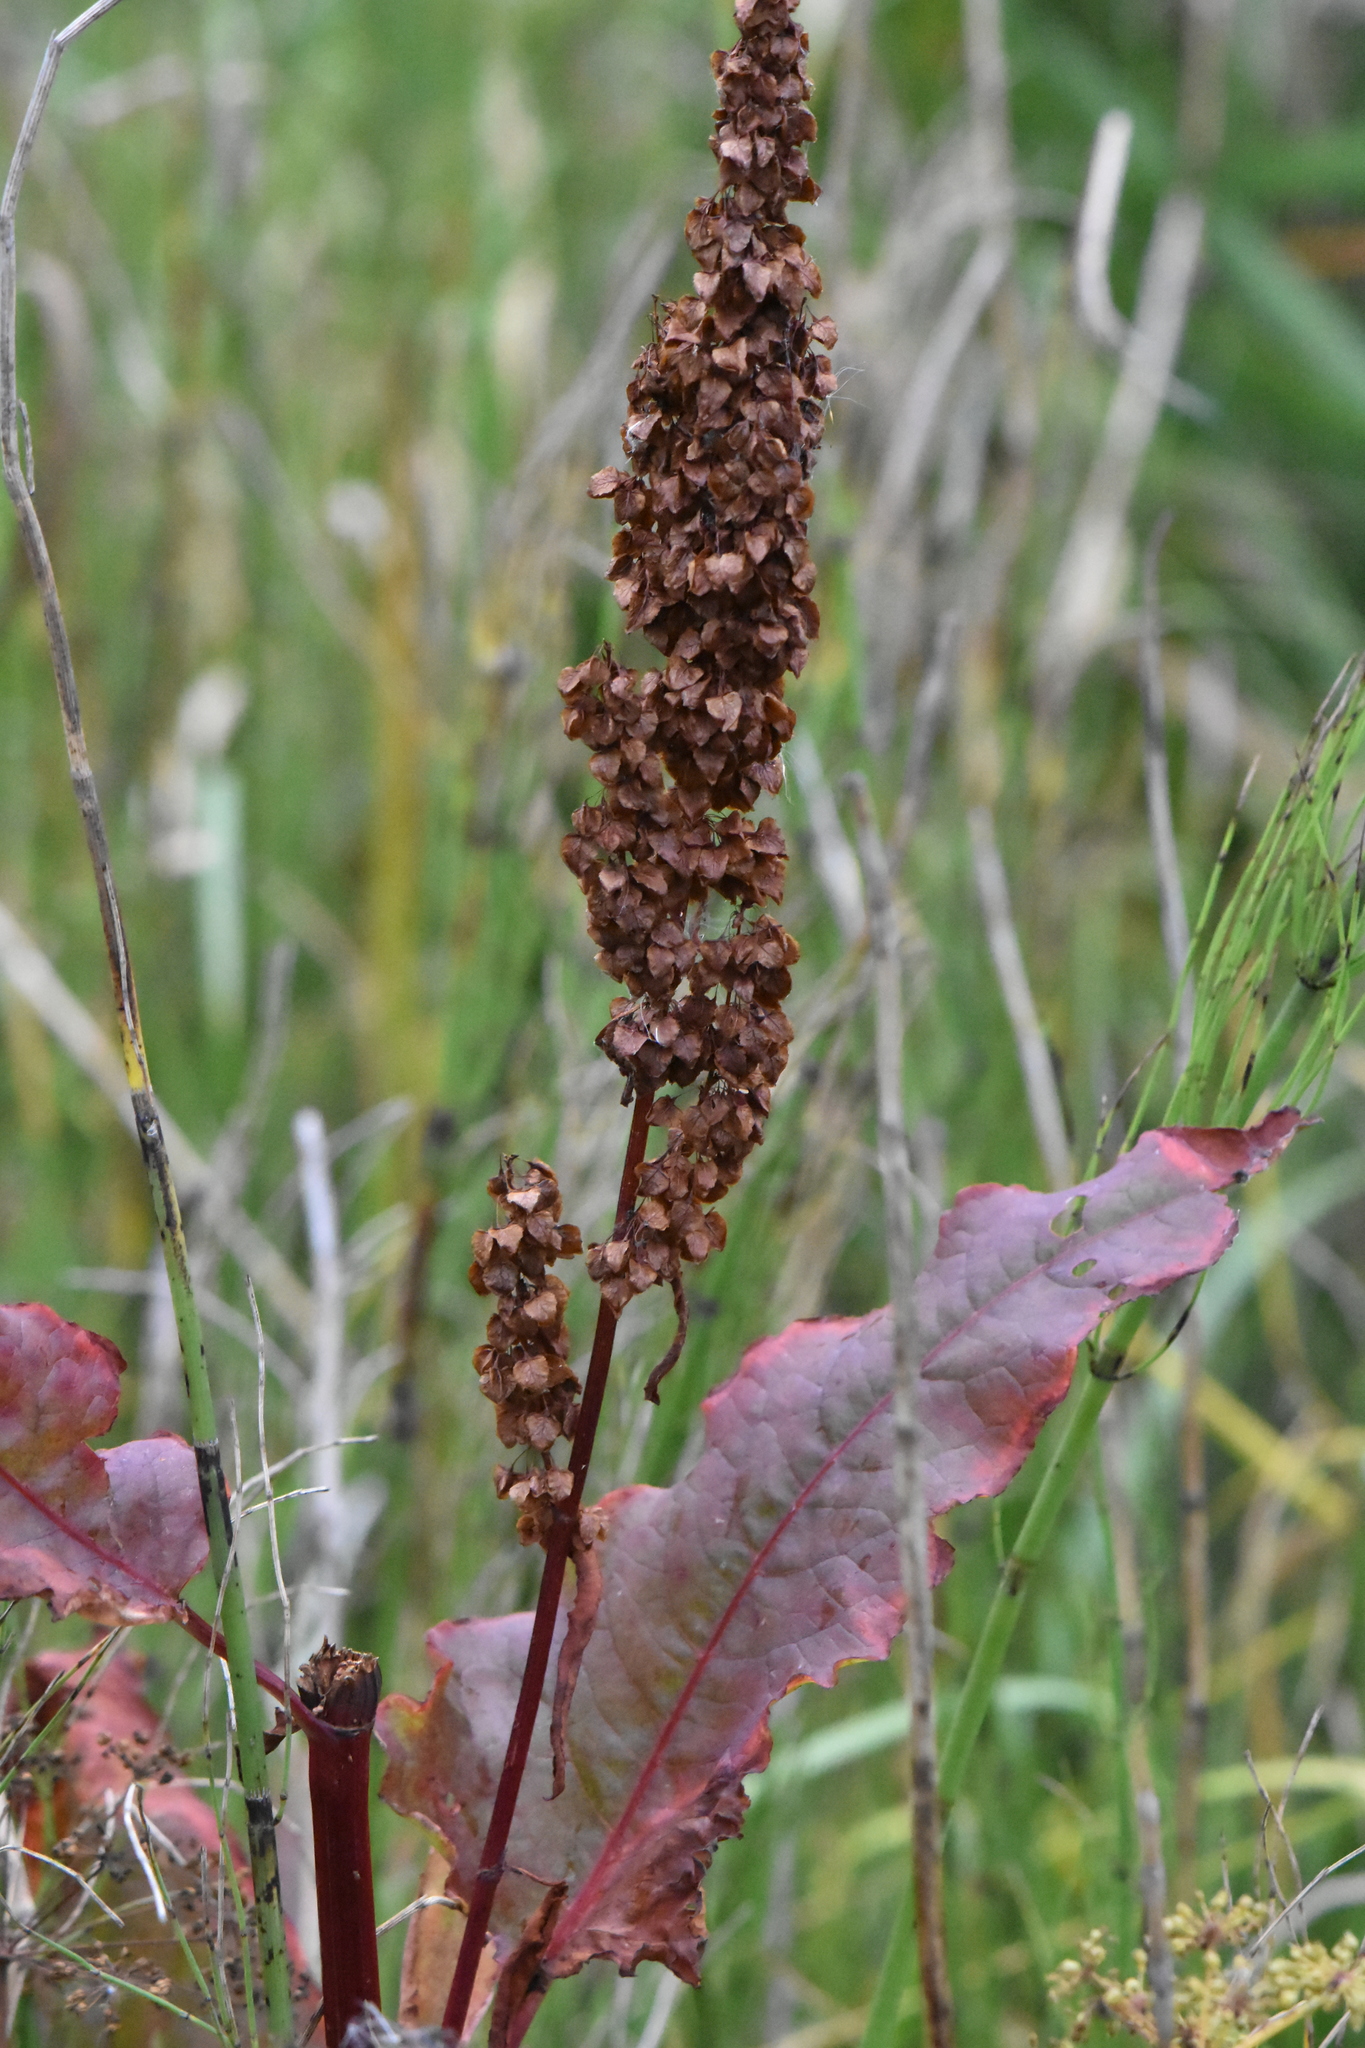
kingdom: Plantae
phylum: Tracheophyta
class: Magnoliopsida
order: Caryophyllales
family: Polygonaceae
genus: Rumex
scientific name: Rumex aquaticus
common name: Scottish dock
